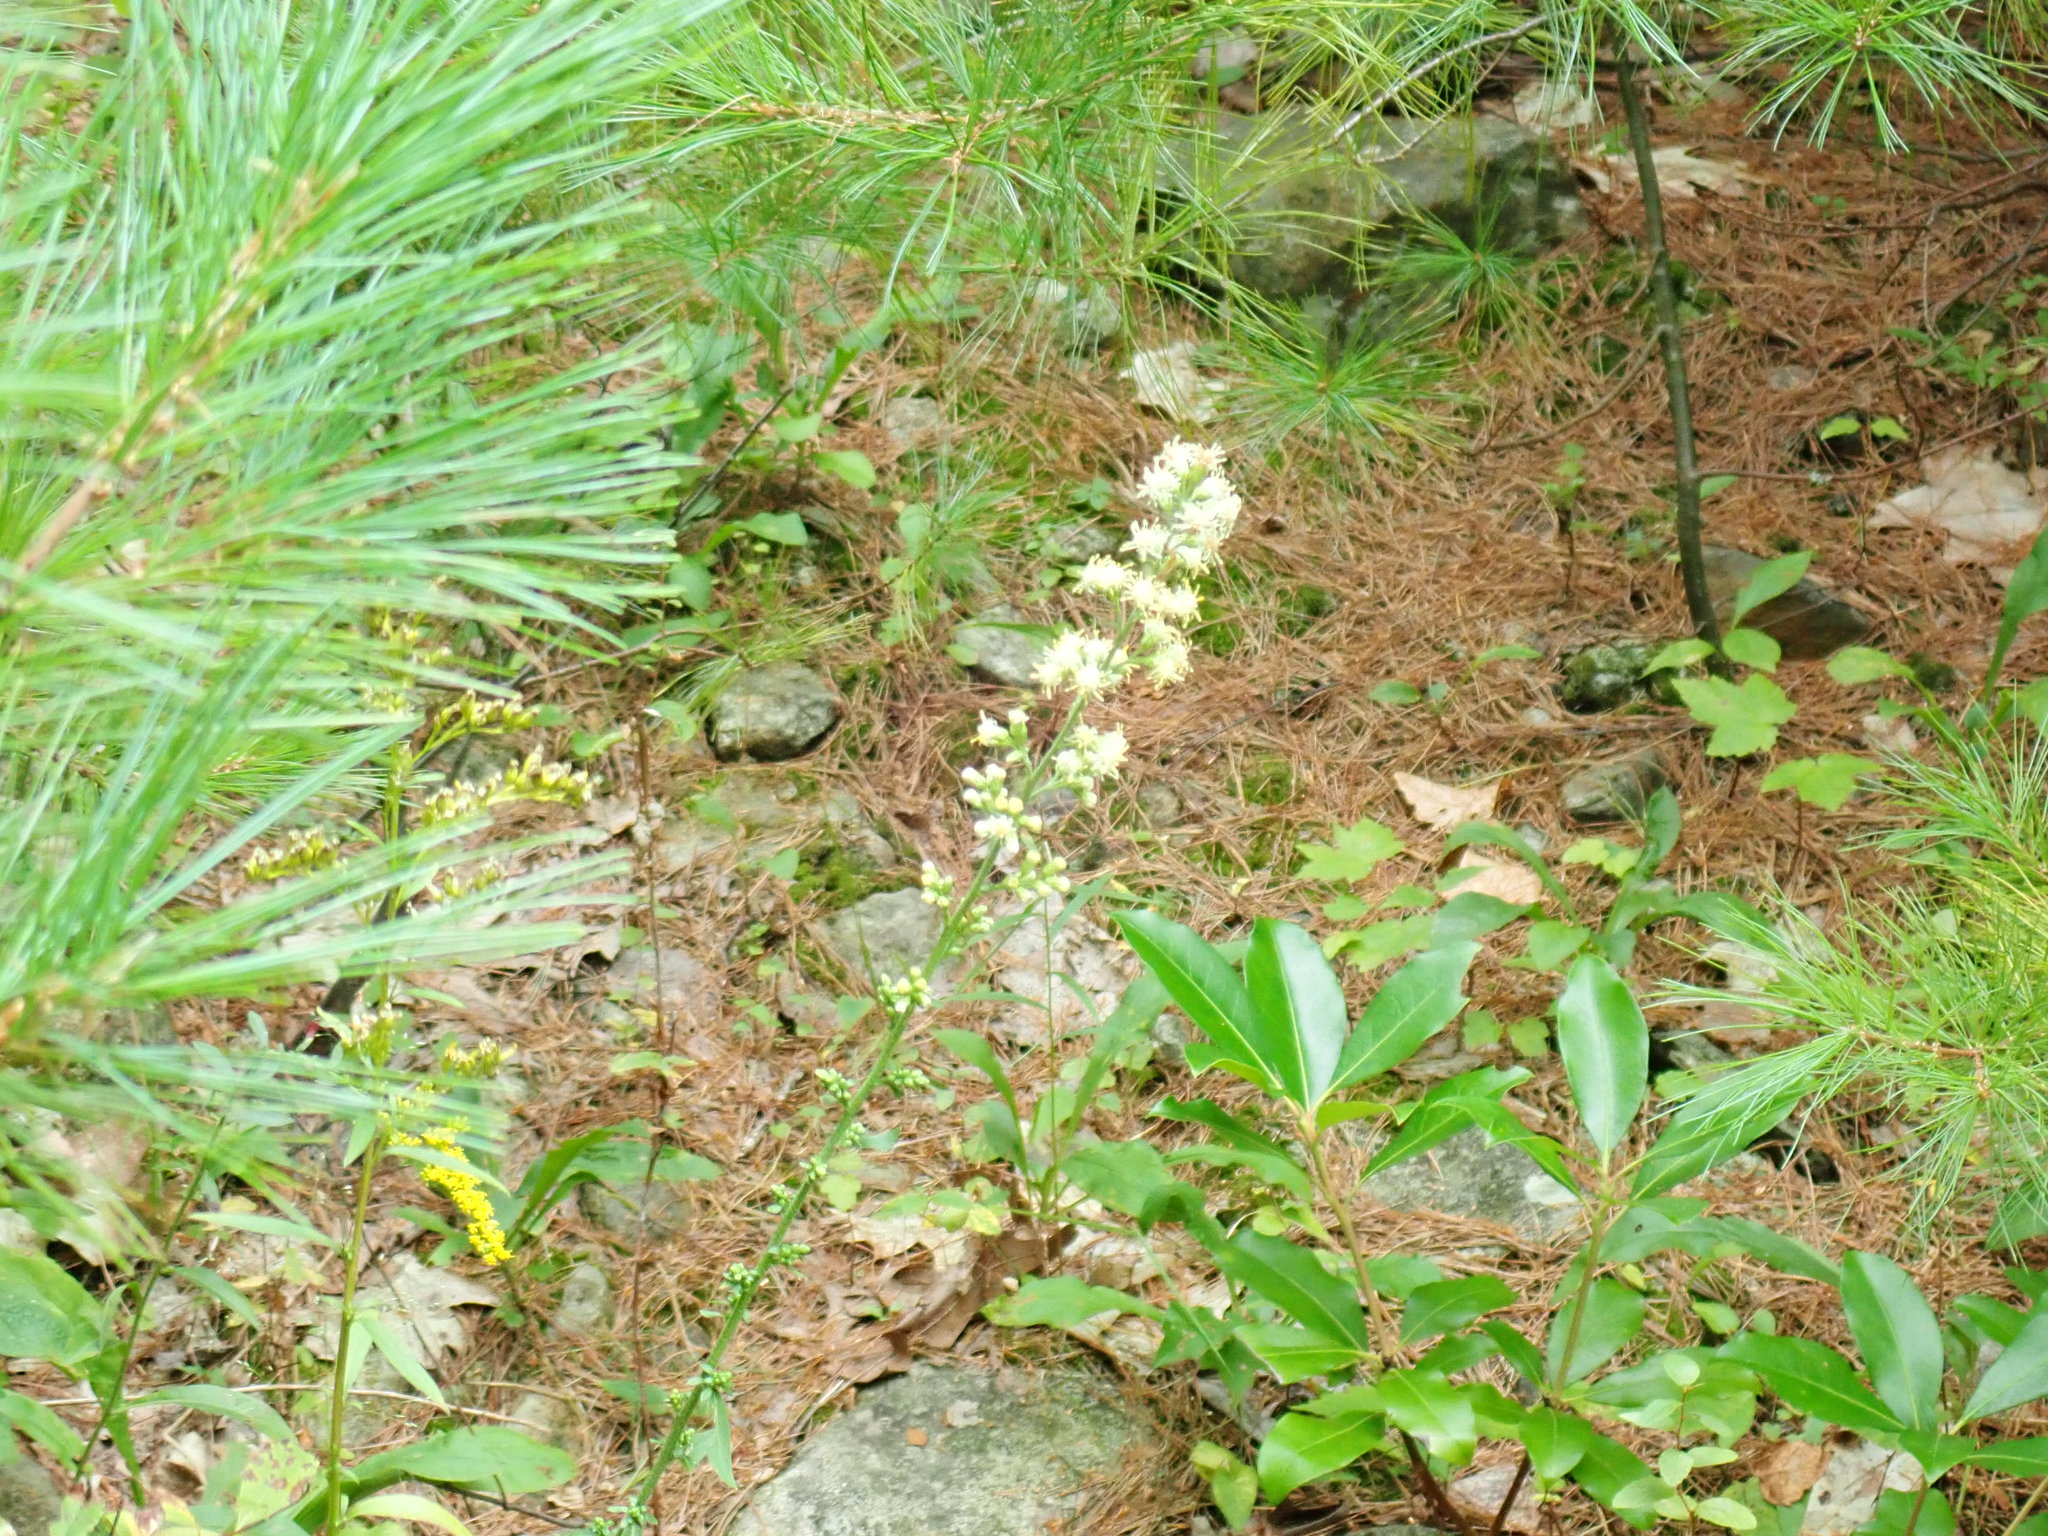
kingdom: Plantae
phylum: Tracheophyta
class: Magnoliopsida
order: Asterales
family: Asteraceae
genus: Solidago
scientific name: Solidago bicolor
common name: Silverrod
